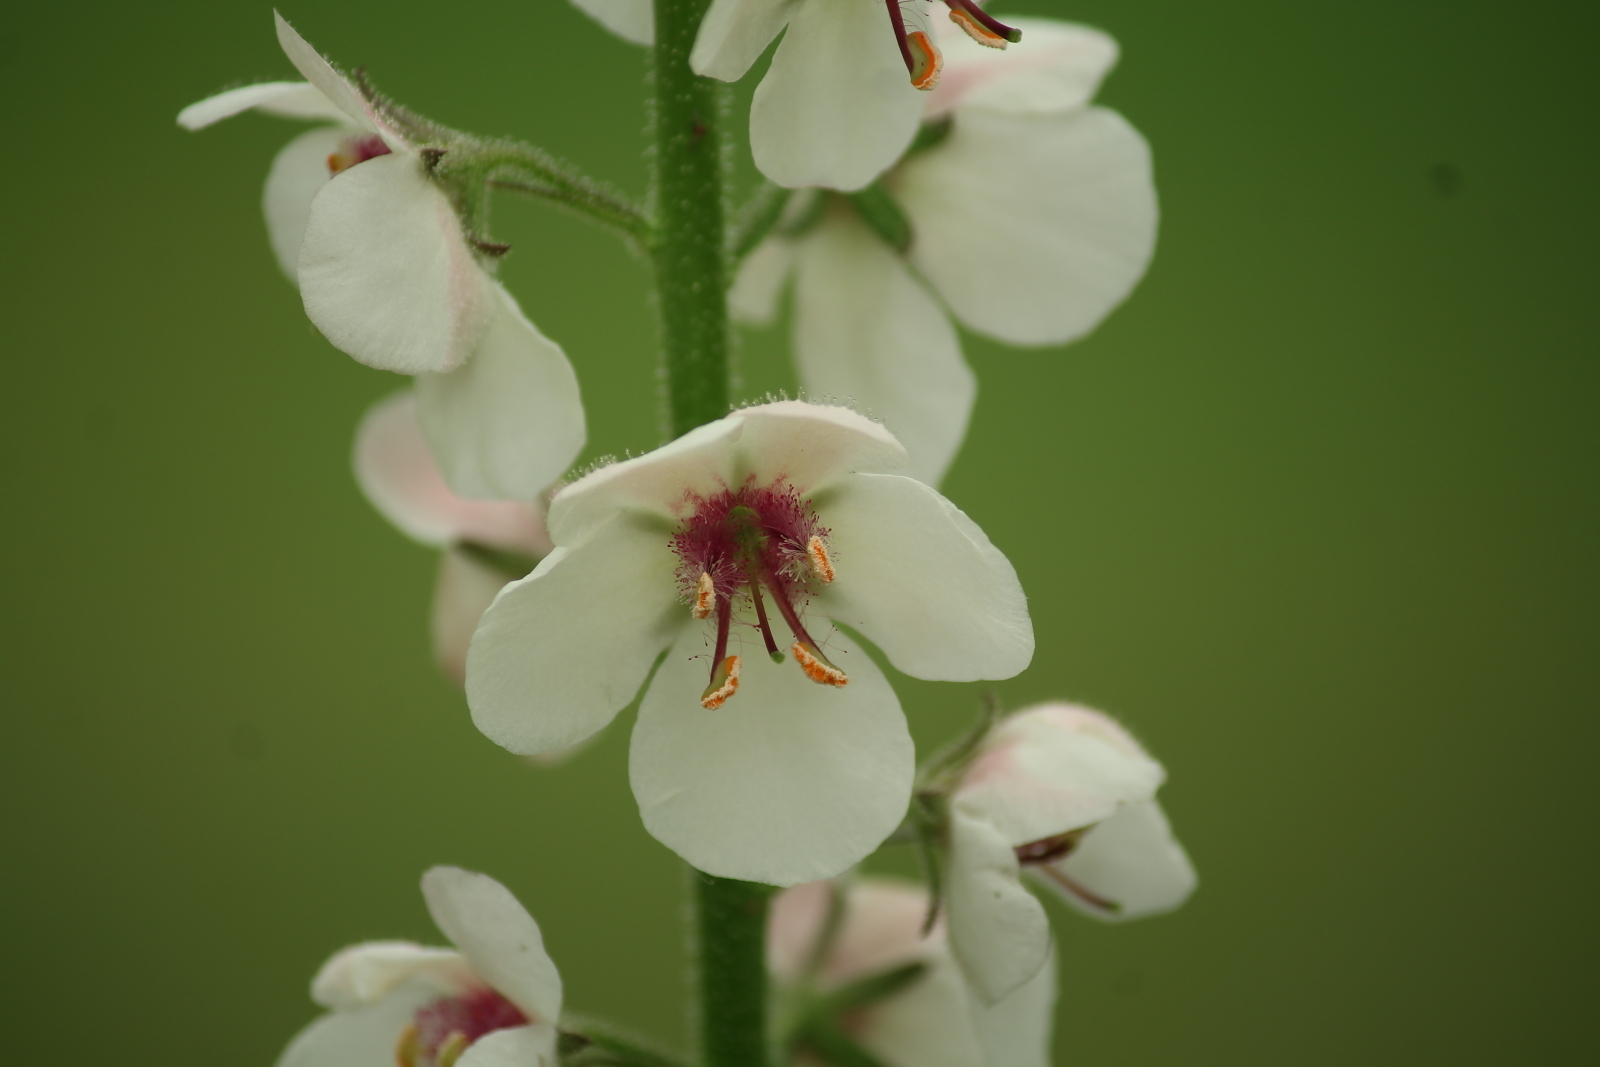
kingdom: Plantae
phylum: Tracheophyta
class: Magnoliopsida
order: Lamiales
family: Scrophulariaceae
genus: Verbascum
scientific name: Verbascum blattaria
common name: Moth mullein
